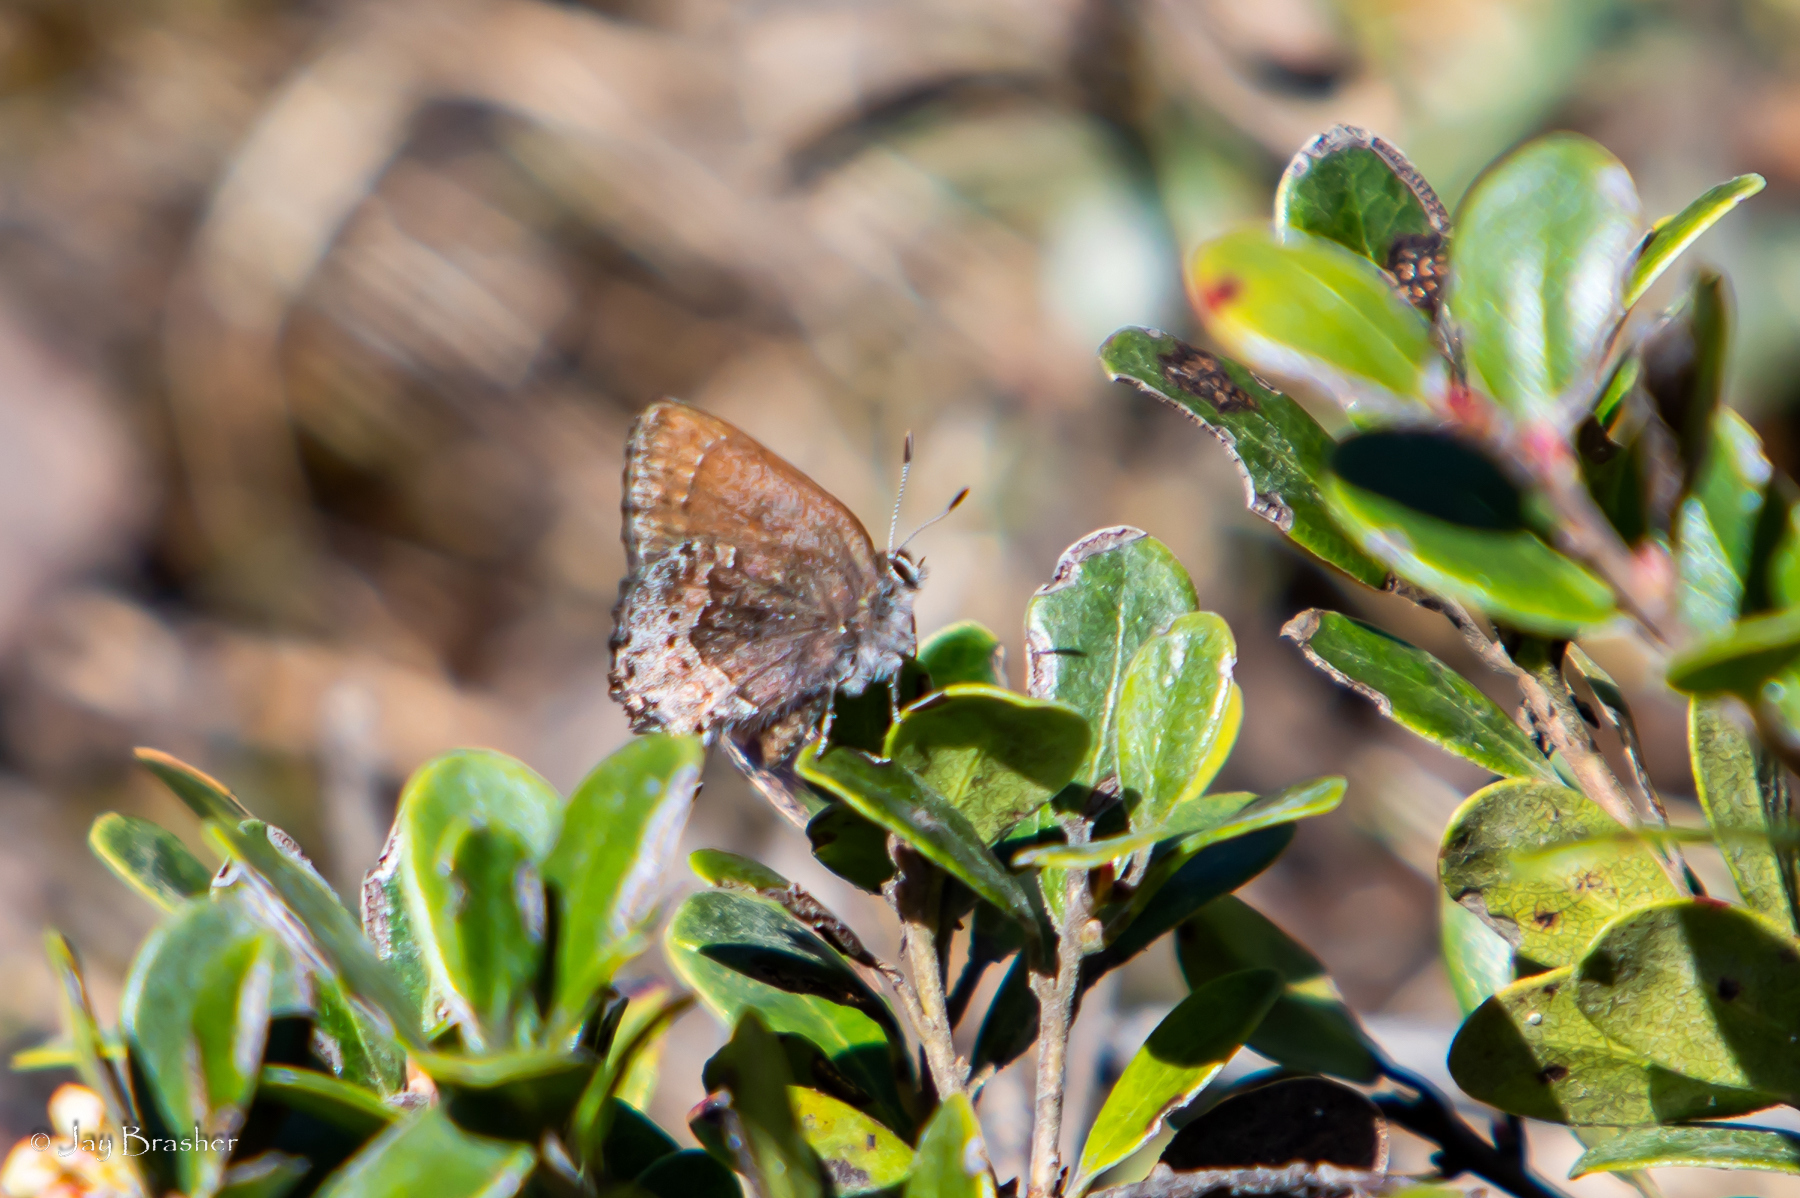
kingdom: Animalia
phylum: Arthropoda
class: Insecta
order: Lepidoptera
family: Lycaenidae
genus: Callophrys
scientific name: Callophrys polios
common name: Hoary elfin
